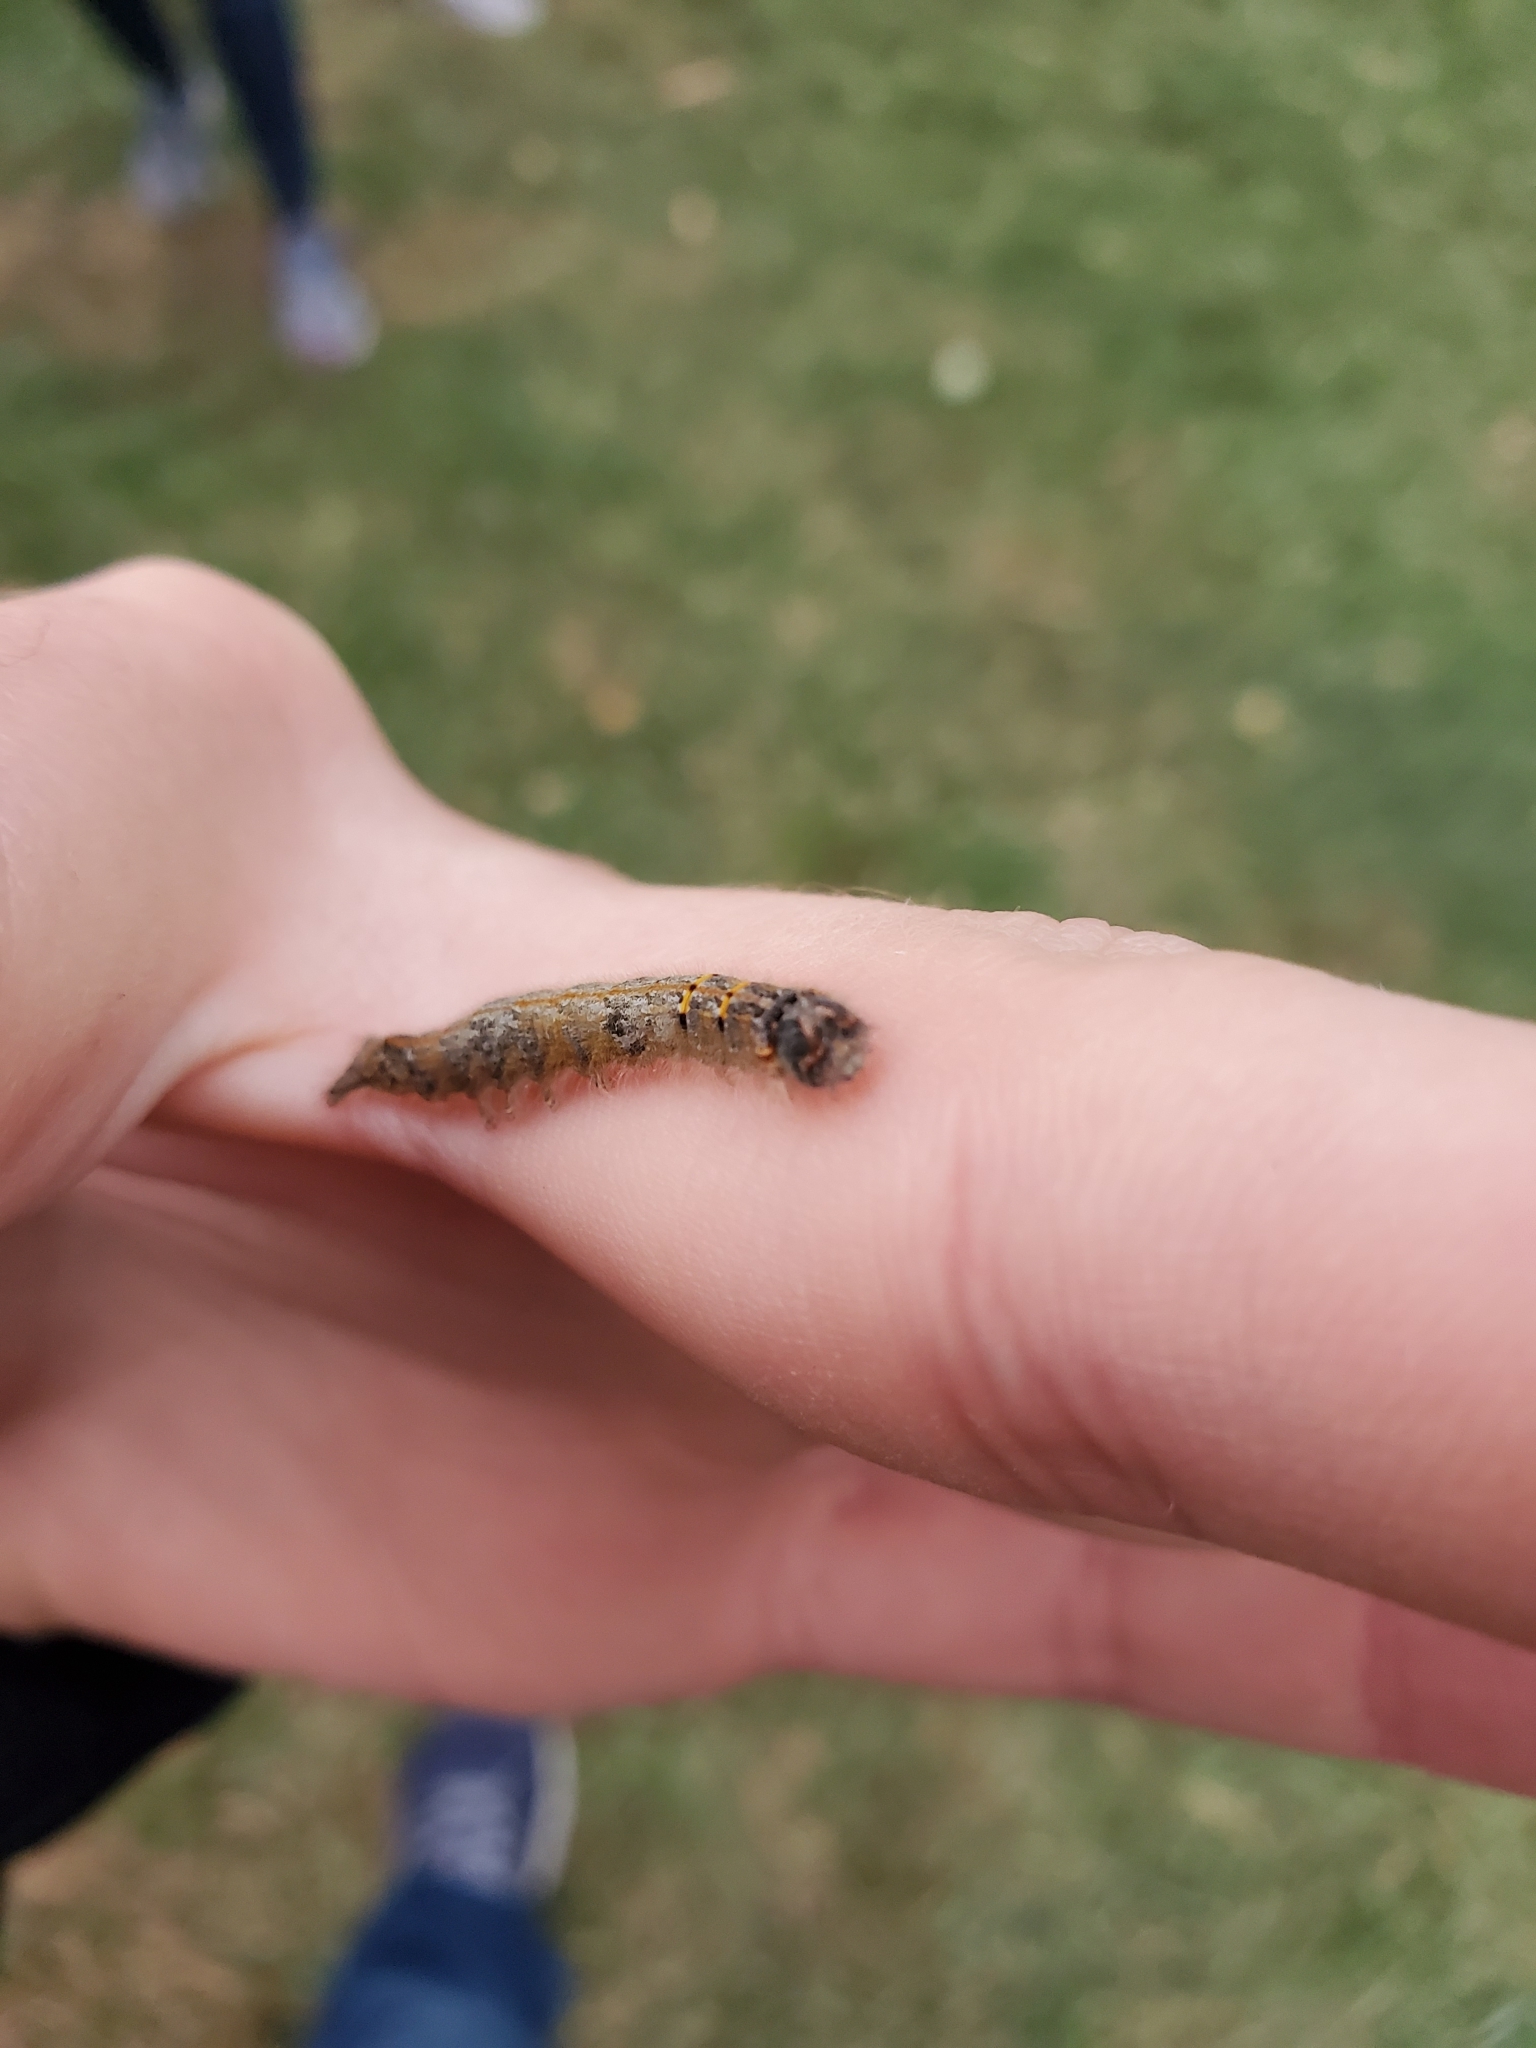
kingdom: Animalia
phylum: Arthropoda
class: Insecta
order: Lepidoptera
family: Lasiocampidae
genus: Heteropacha
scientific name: Heteropacha rileyana
